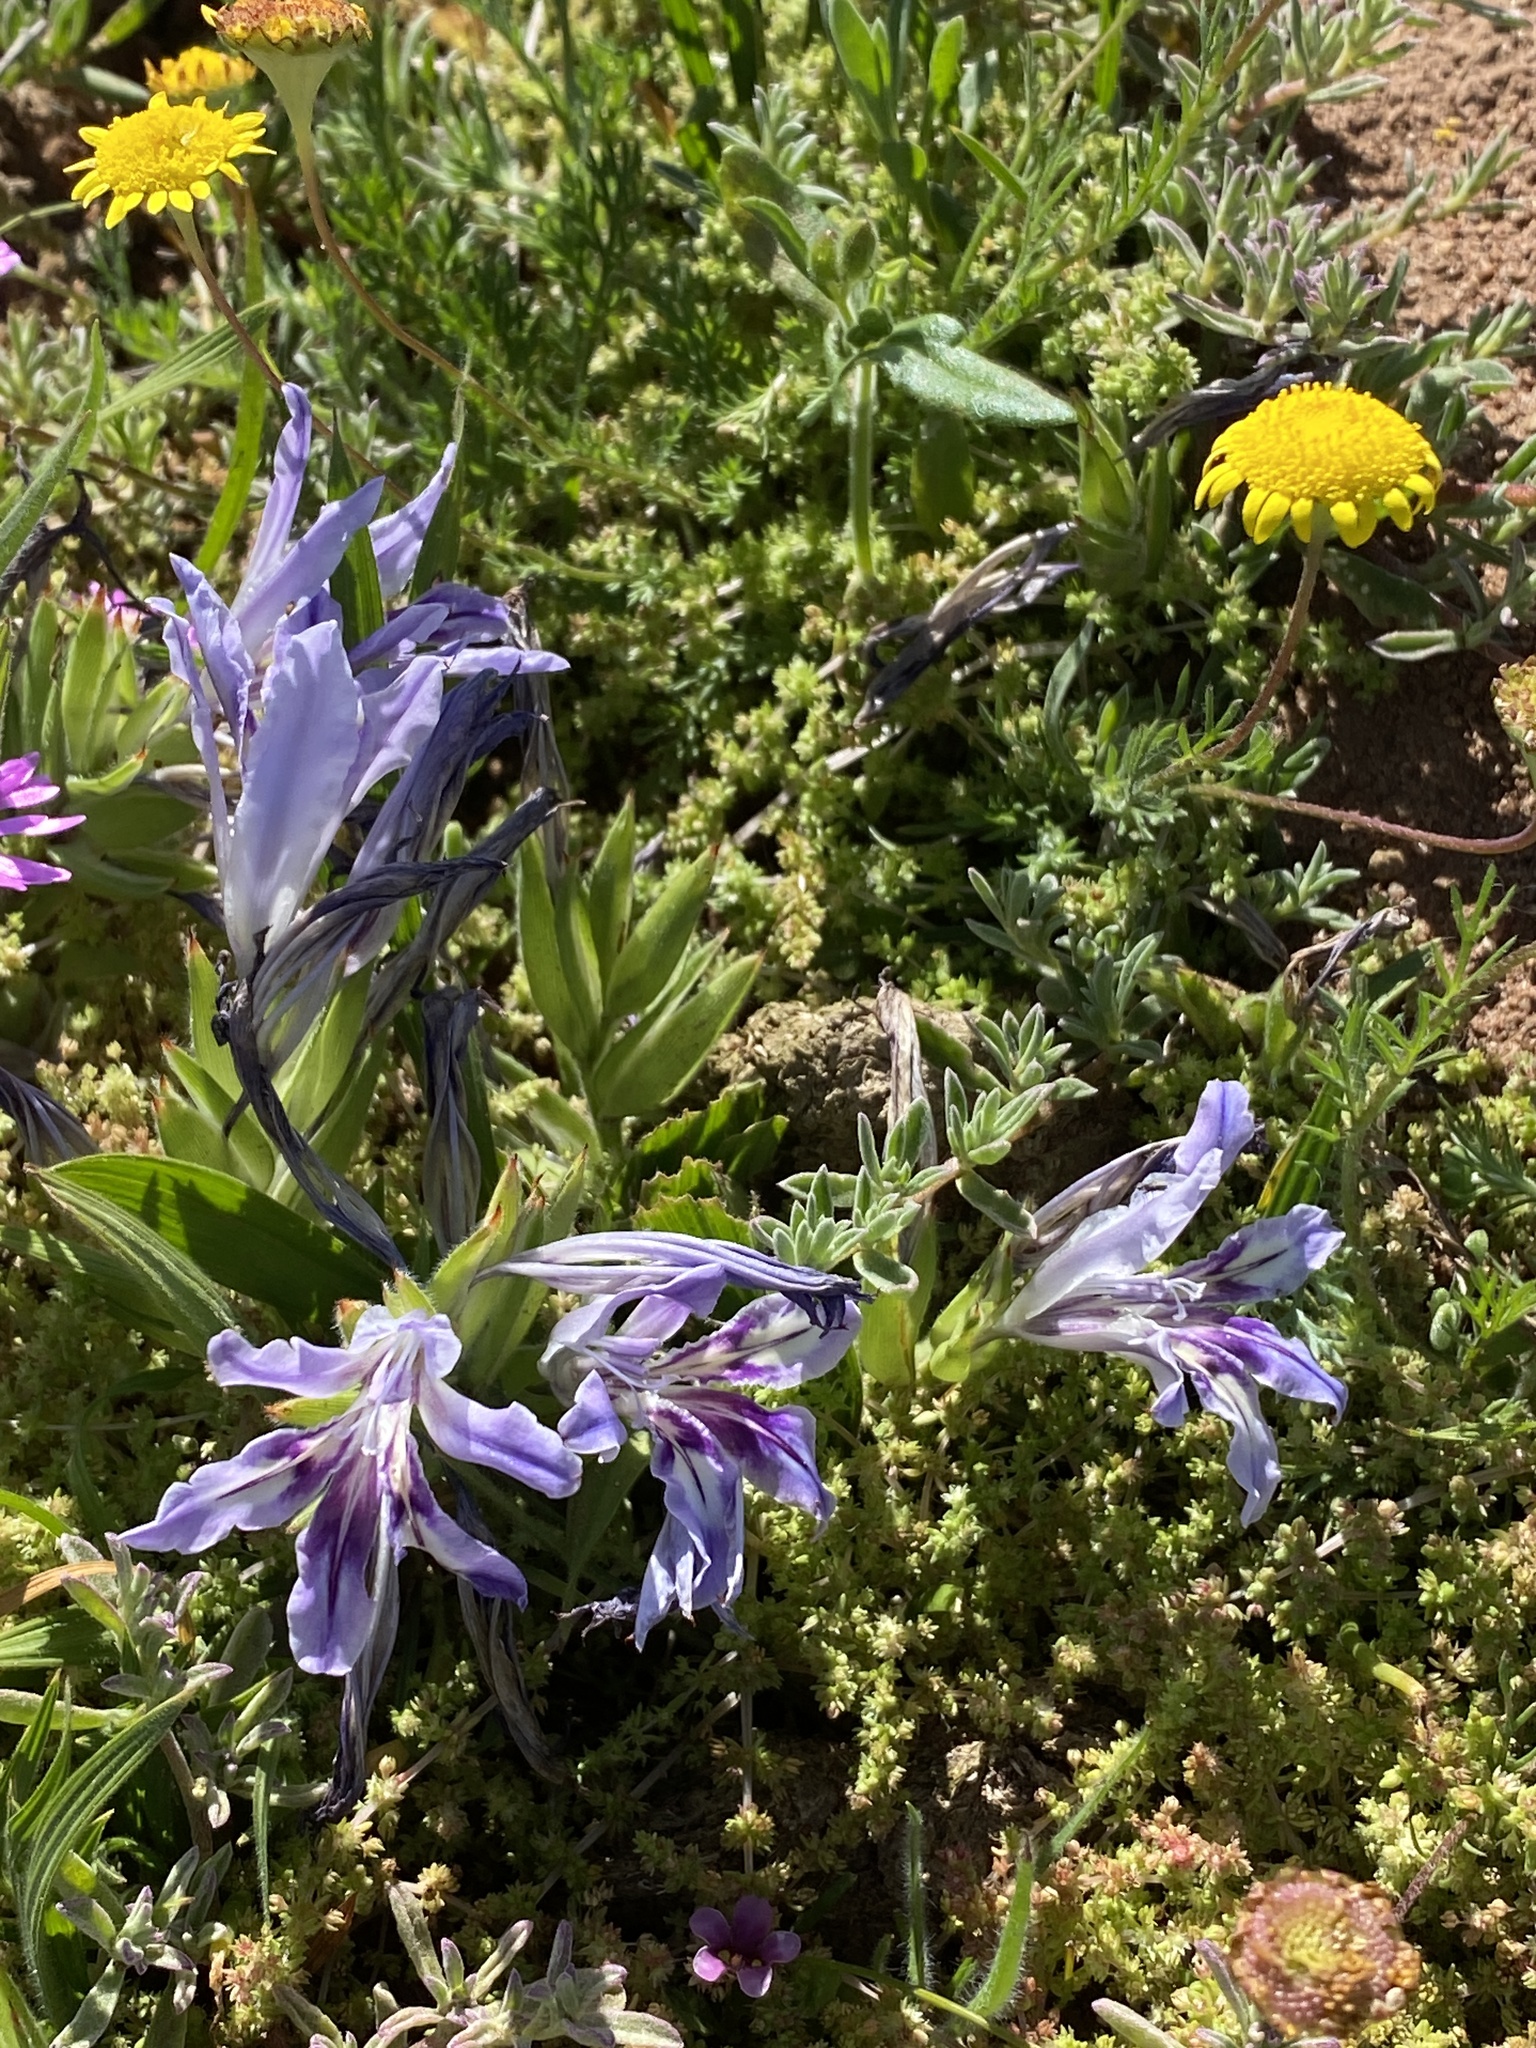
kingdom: Plantae
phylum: Tracheophyta
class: Liliopsida
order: Asparagales
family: Iridaceae
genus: Babiana
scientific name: Babiana ambigua
